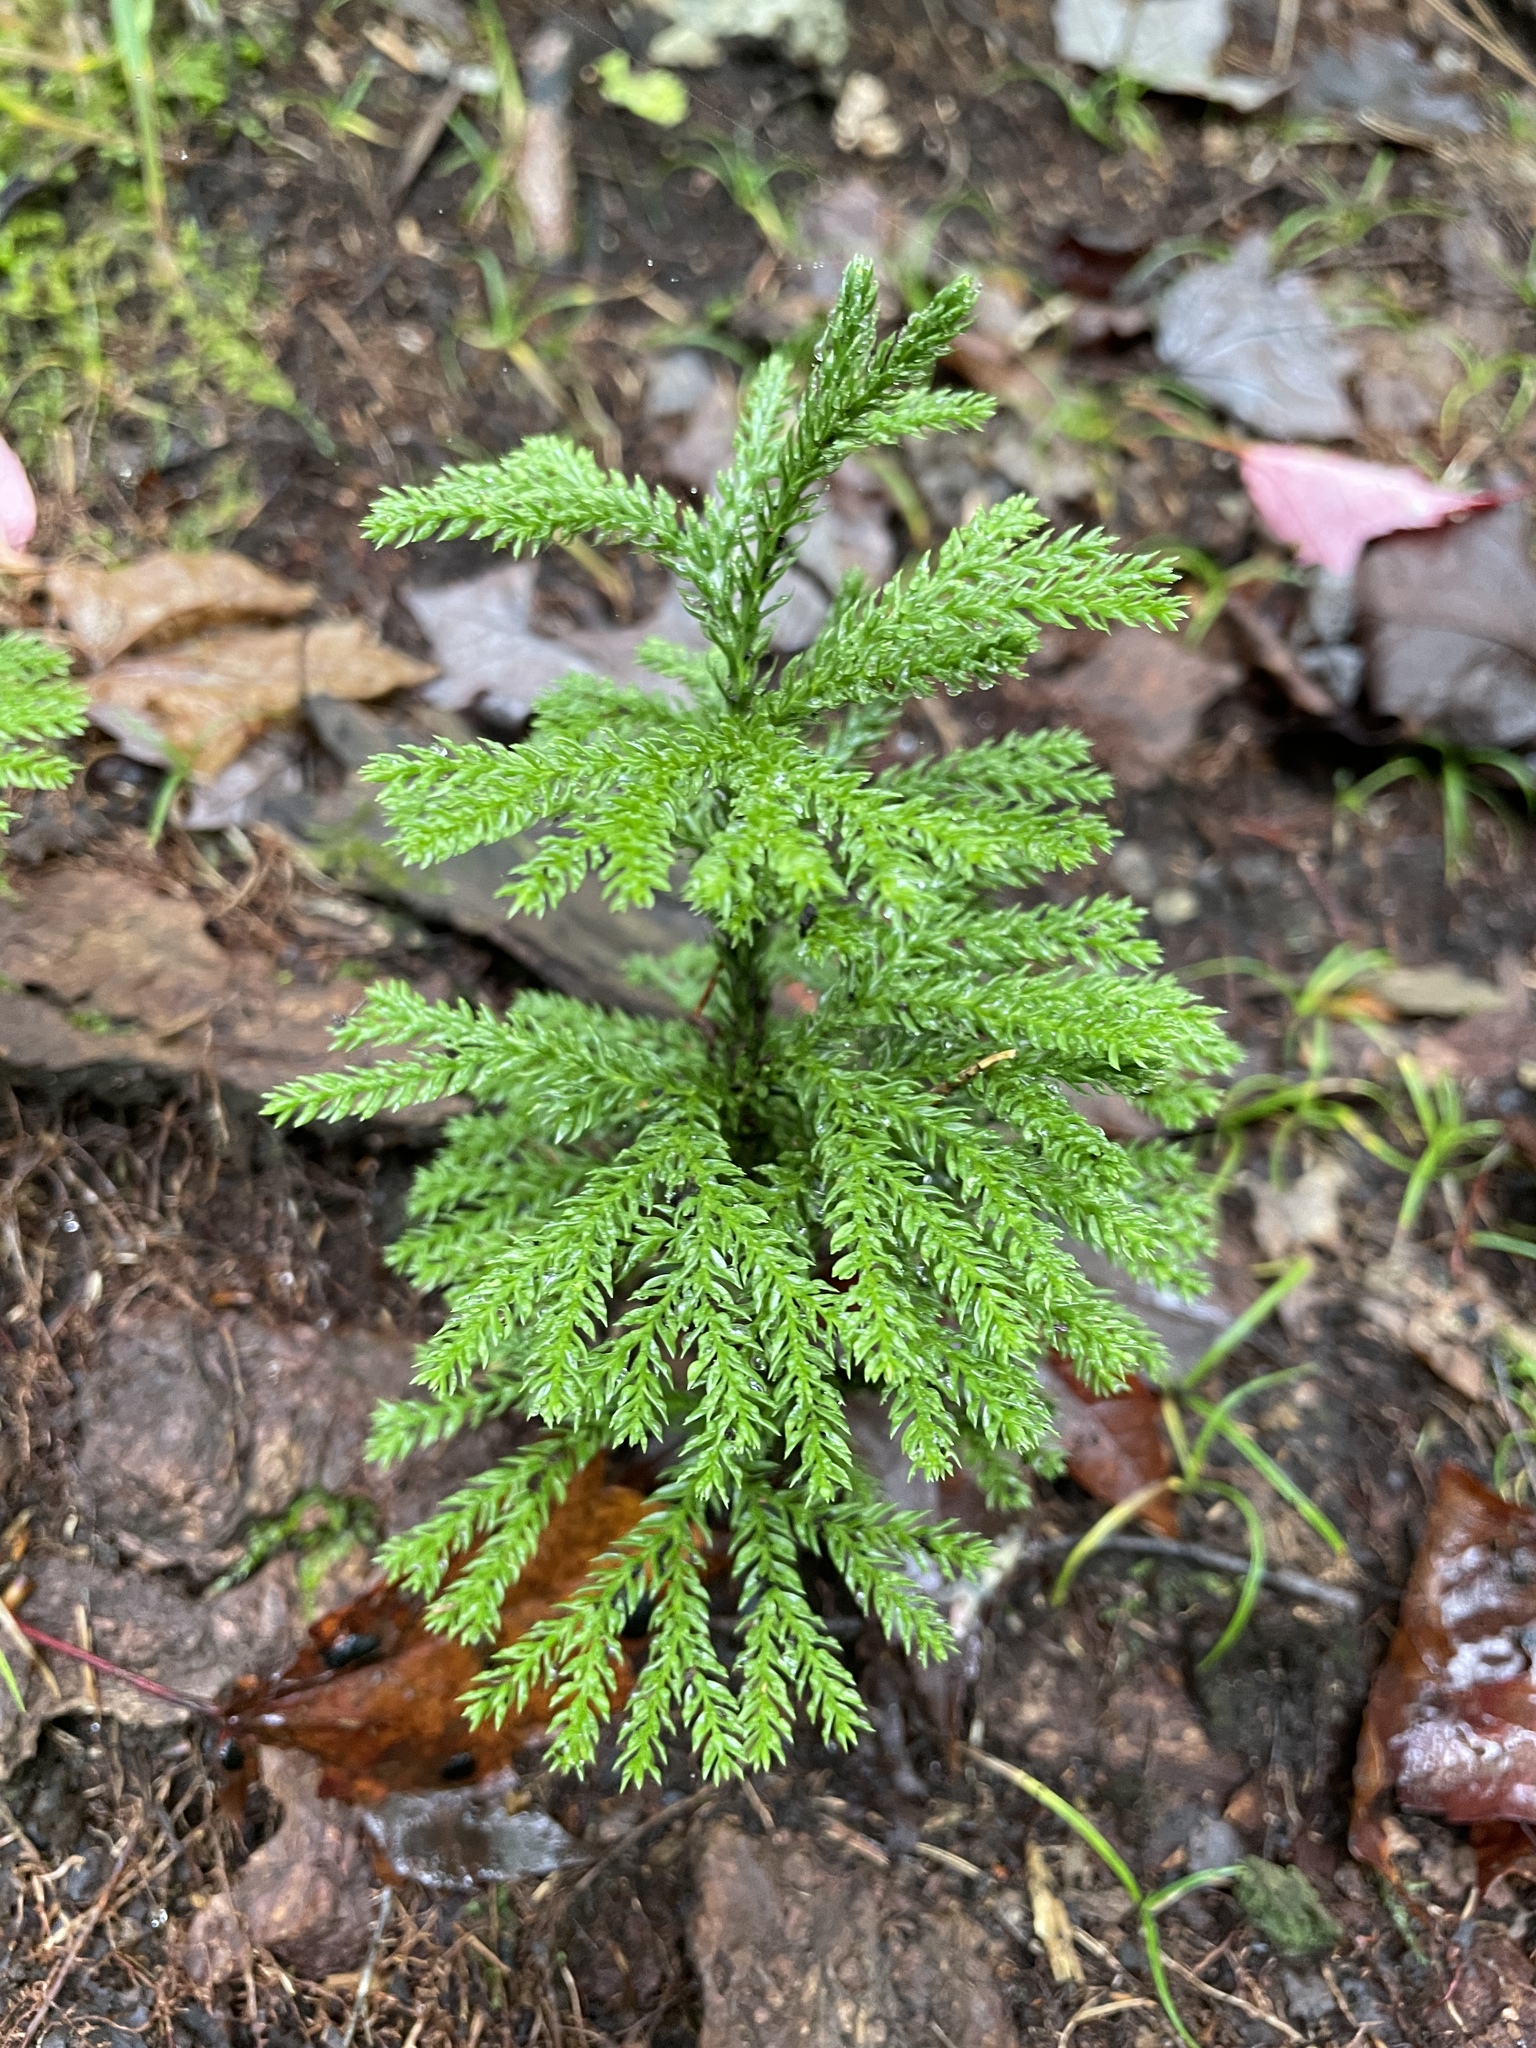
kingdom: Plantae
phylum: Tracheophyta
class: Lycopodiopsida
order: Lycopodiales
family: Lycopodiaceae
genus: Dendrolycopodium
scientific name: Dendrolycopodium hickeyi
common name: Hickey's clubmoss
